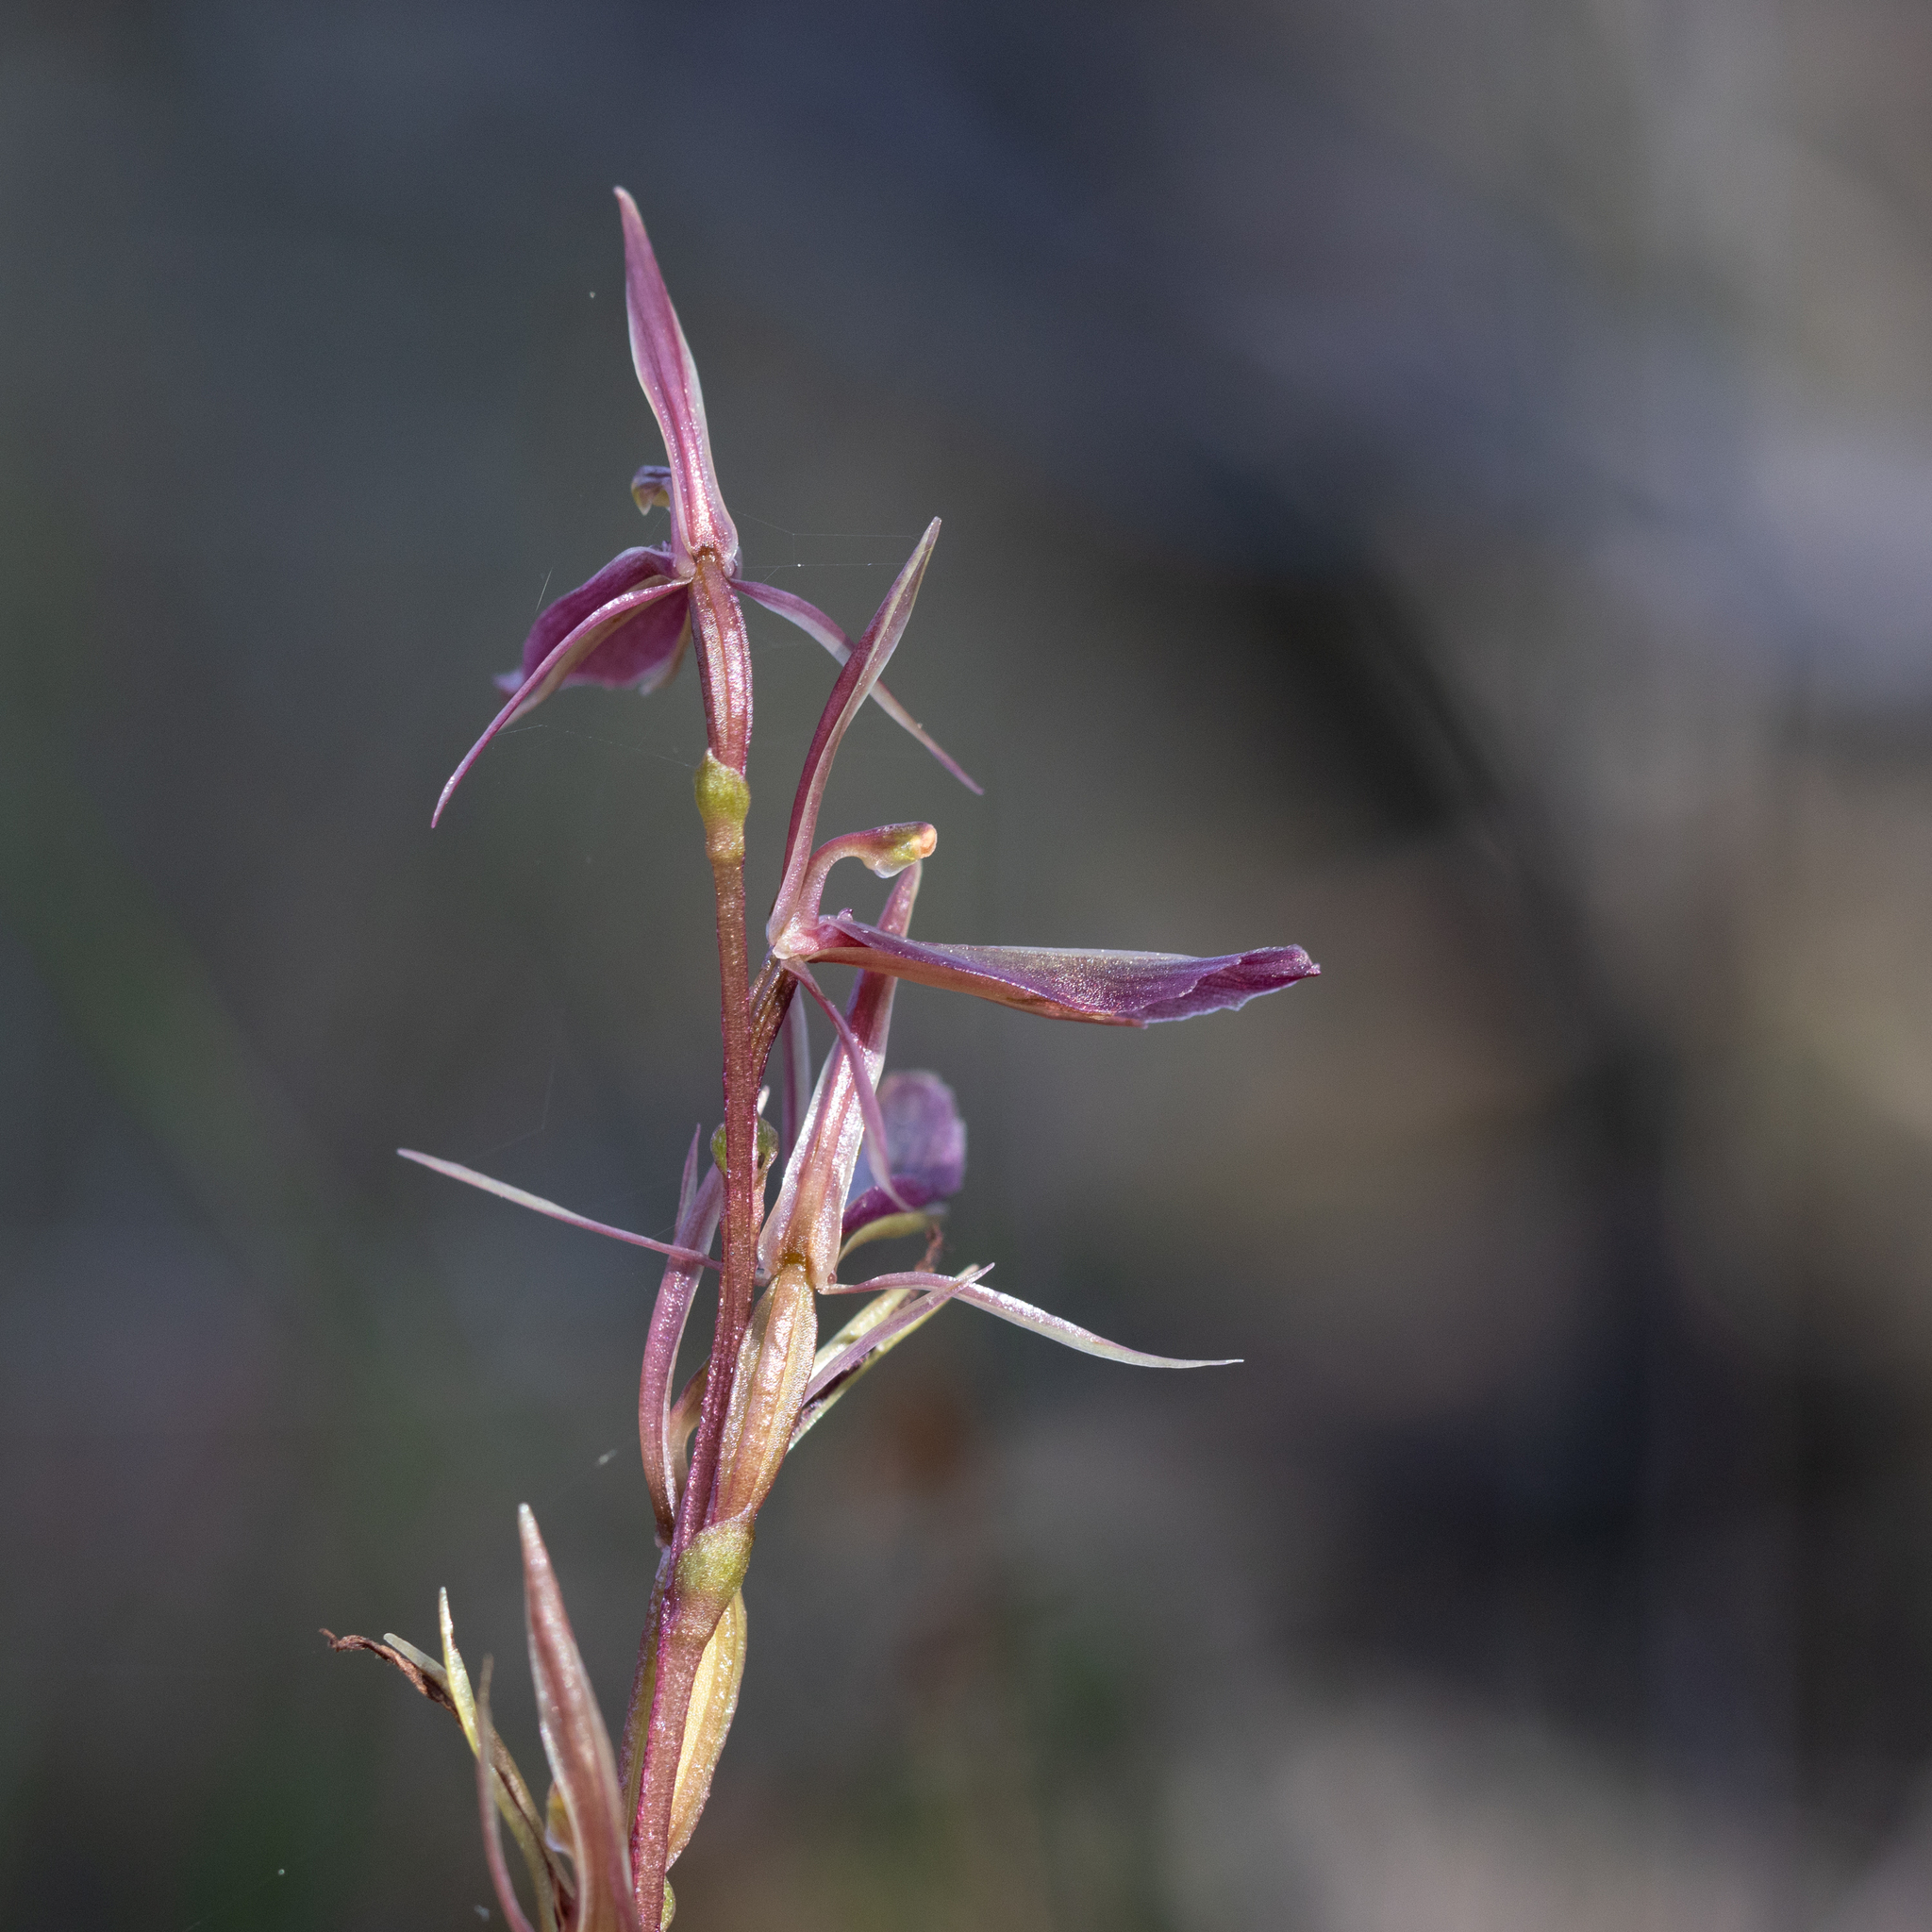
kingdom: Plantae
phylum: Tracheophyta
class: Liliopsida
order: Asparagales
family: Orchidaceae
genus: Cyrtostylis
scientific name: Cyrtostylis robusta
